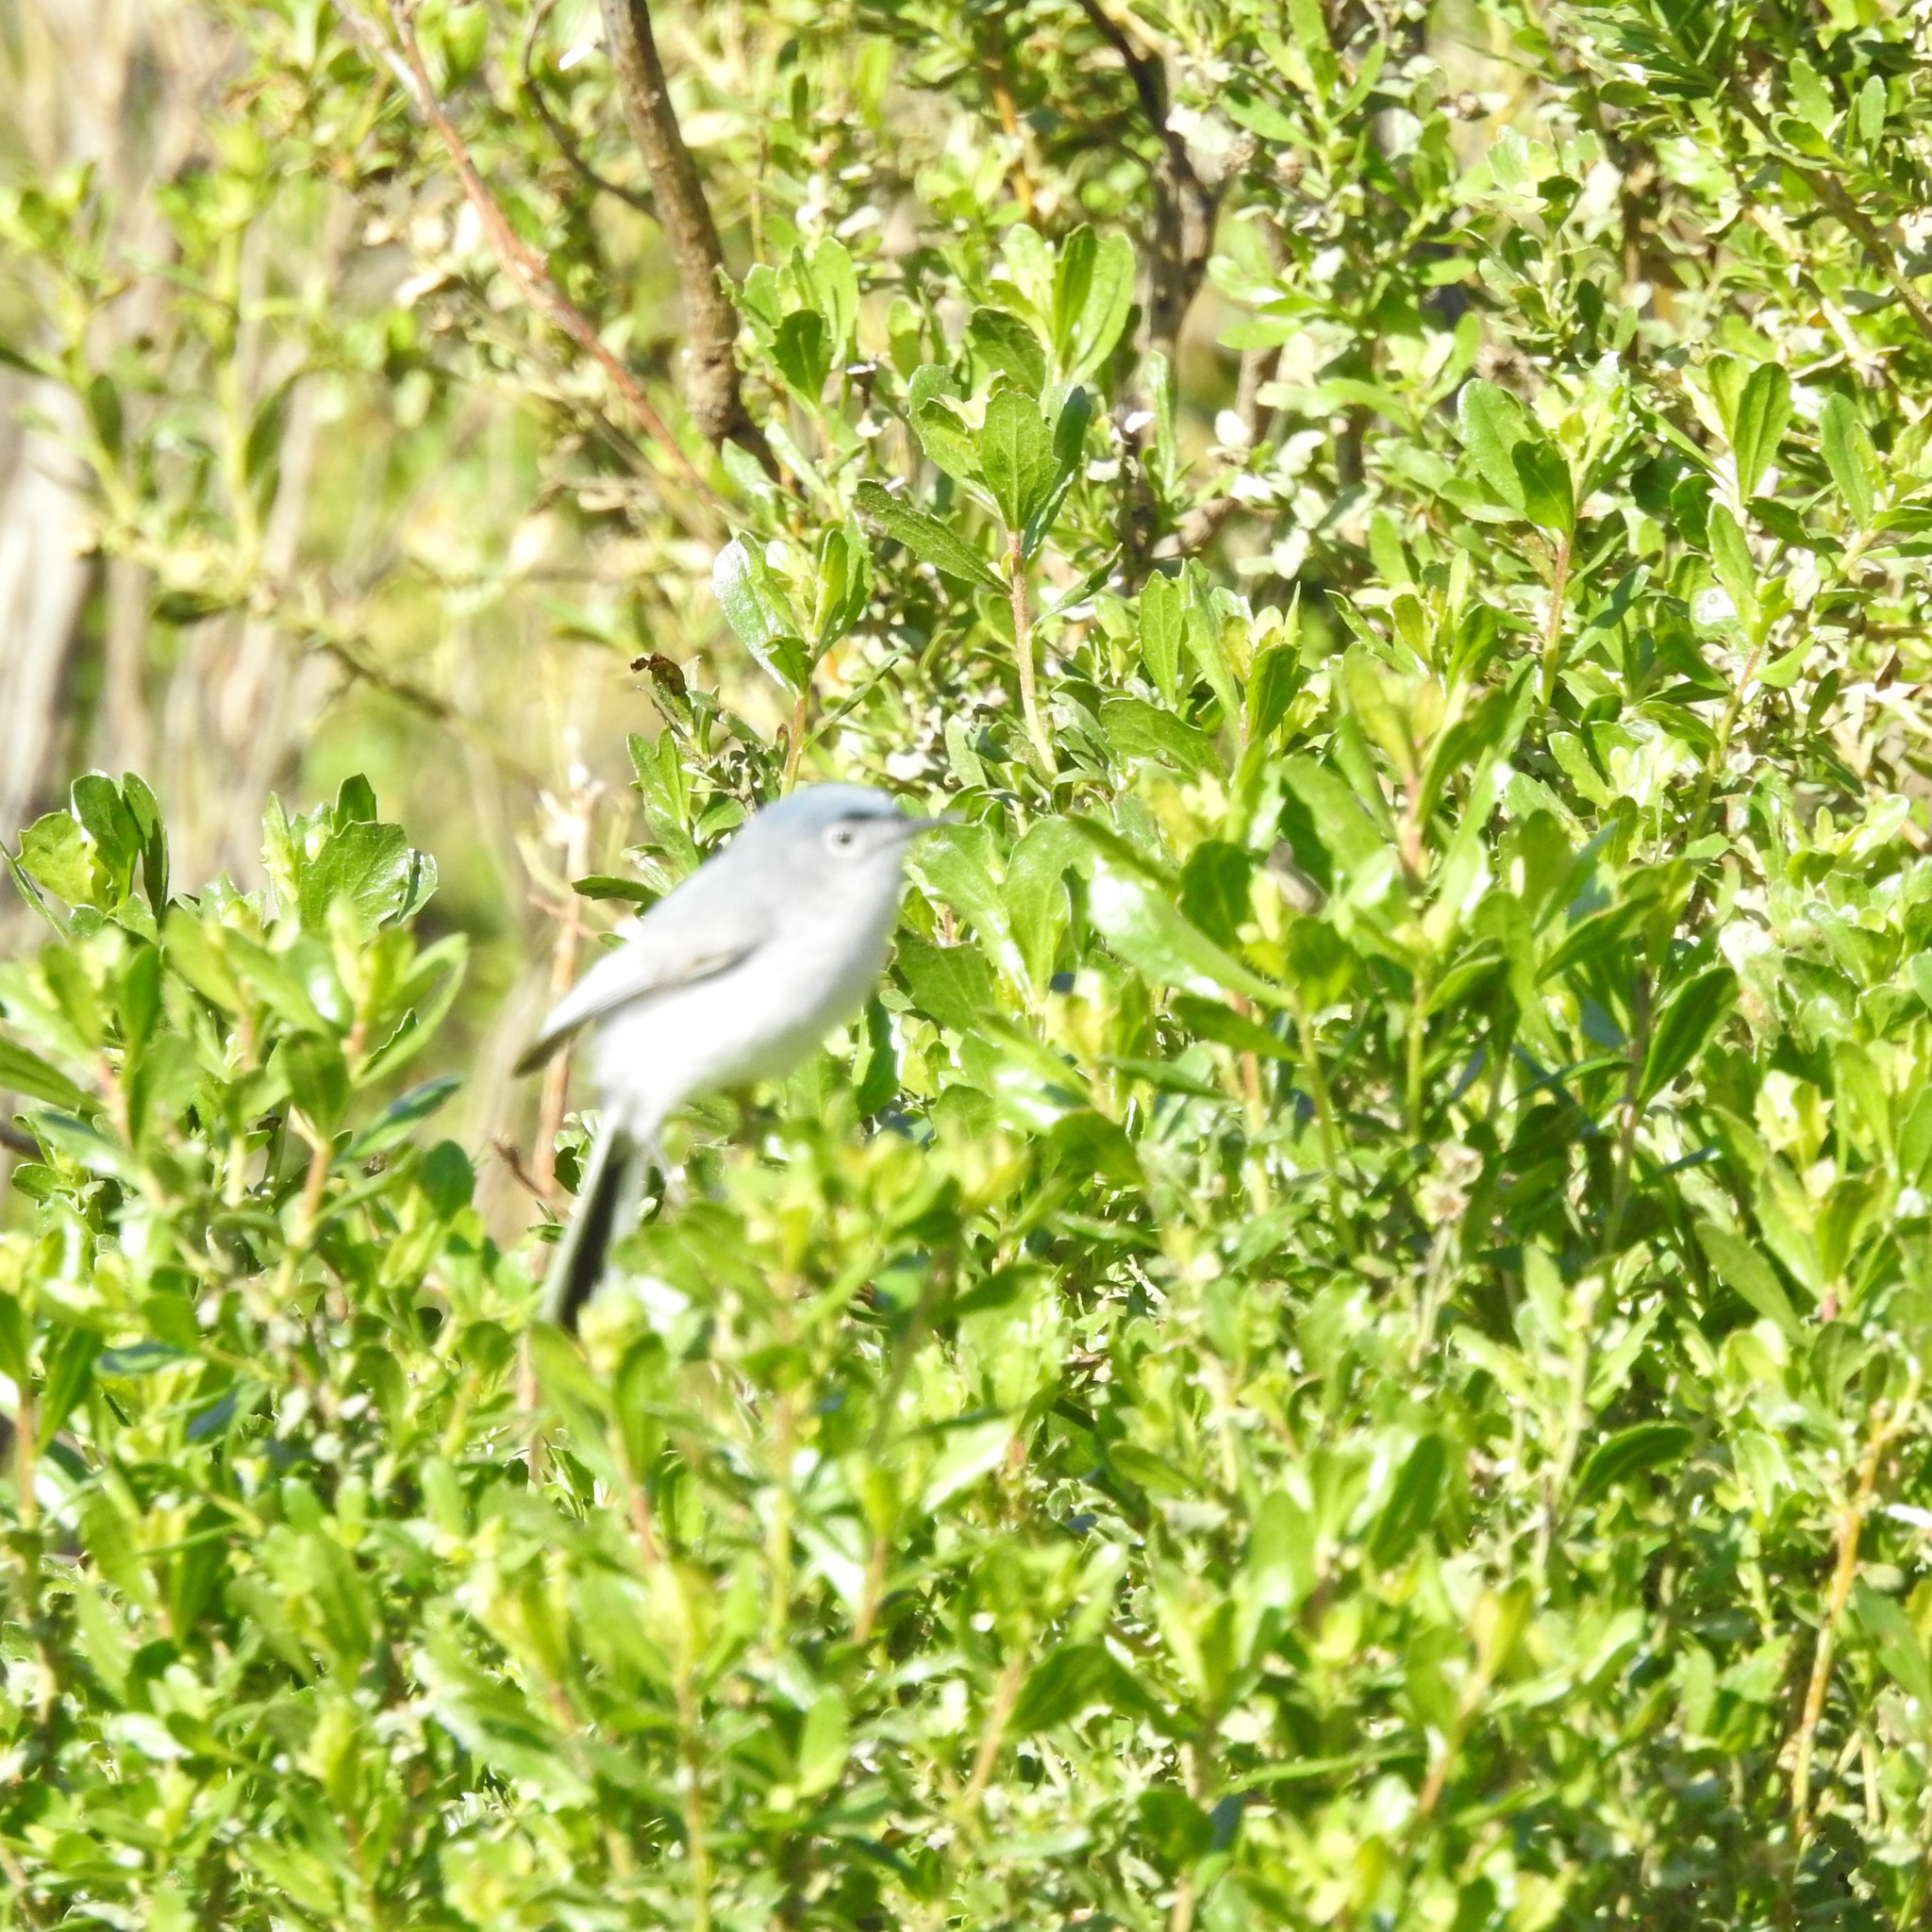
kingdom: Animalia
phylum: Chordata
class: Aves
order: Passeriformes
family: Polioptilidae
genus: Polioptila
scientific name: Polioptila caerulea
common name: Blue-gray gnatcatcher
